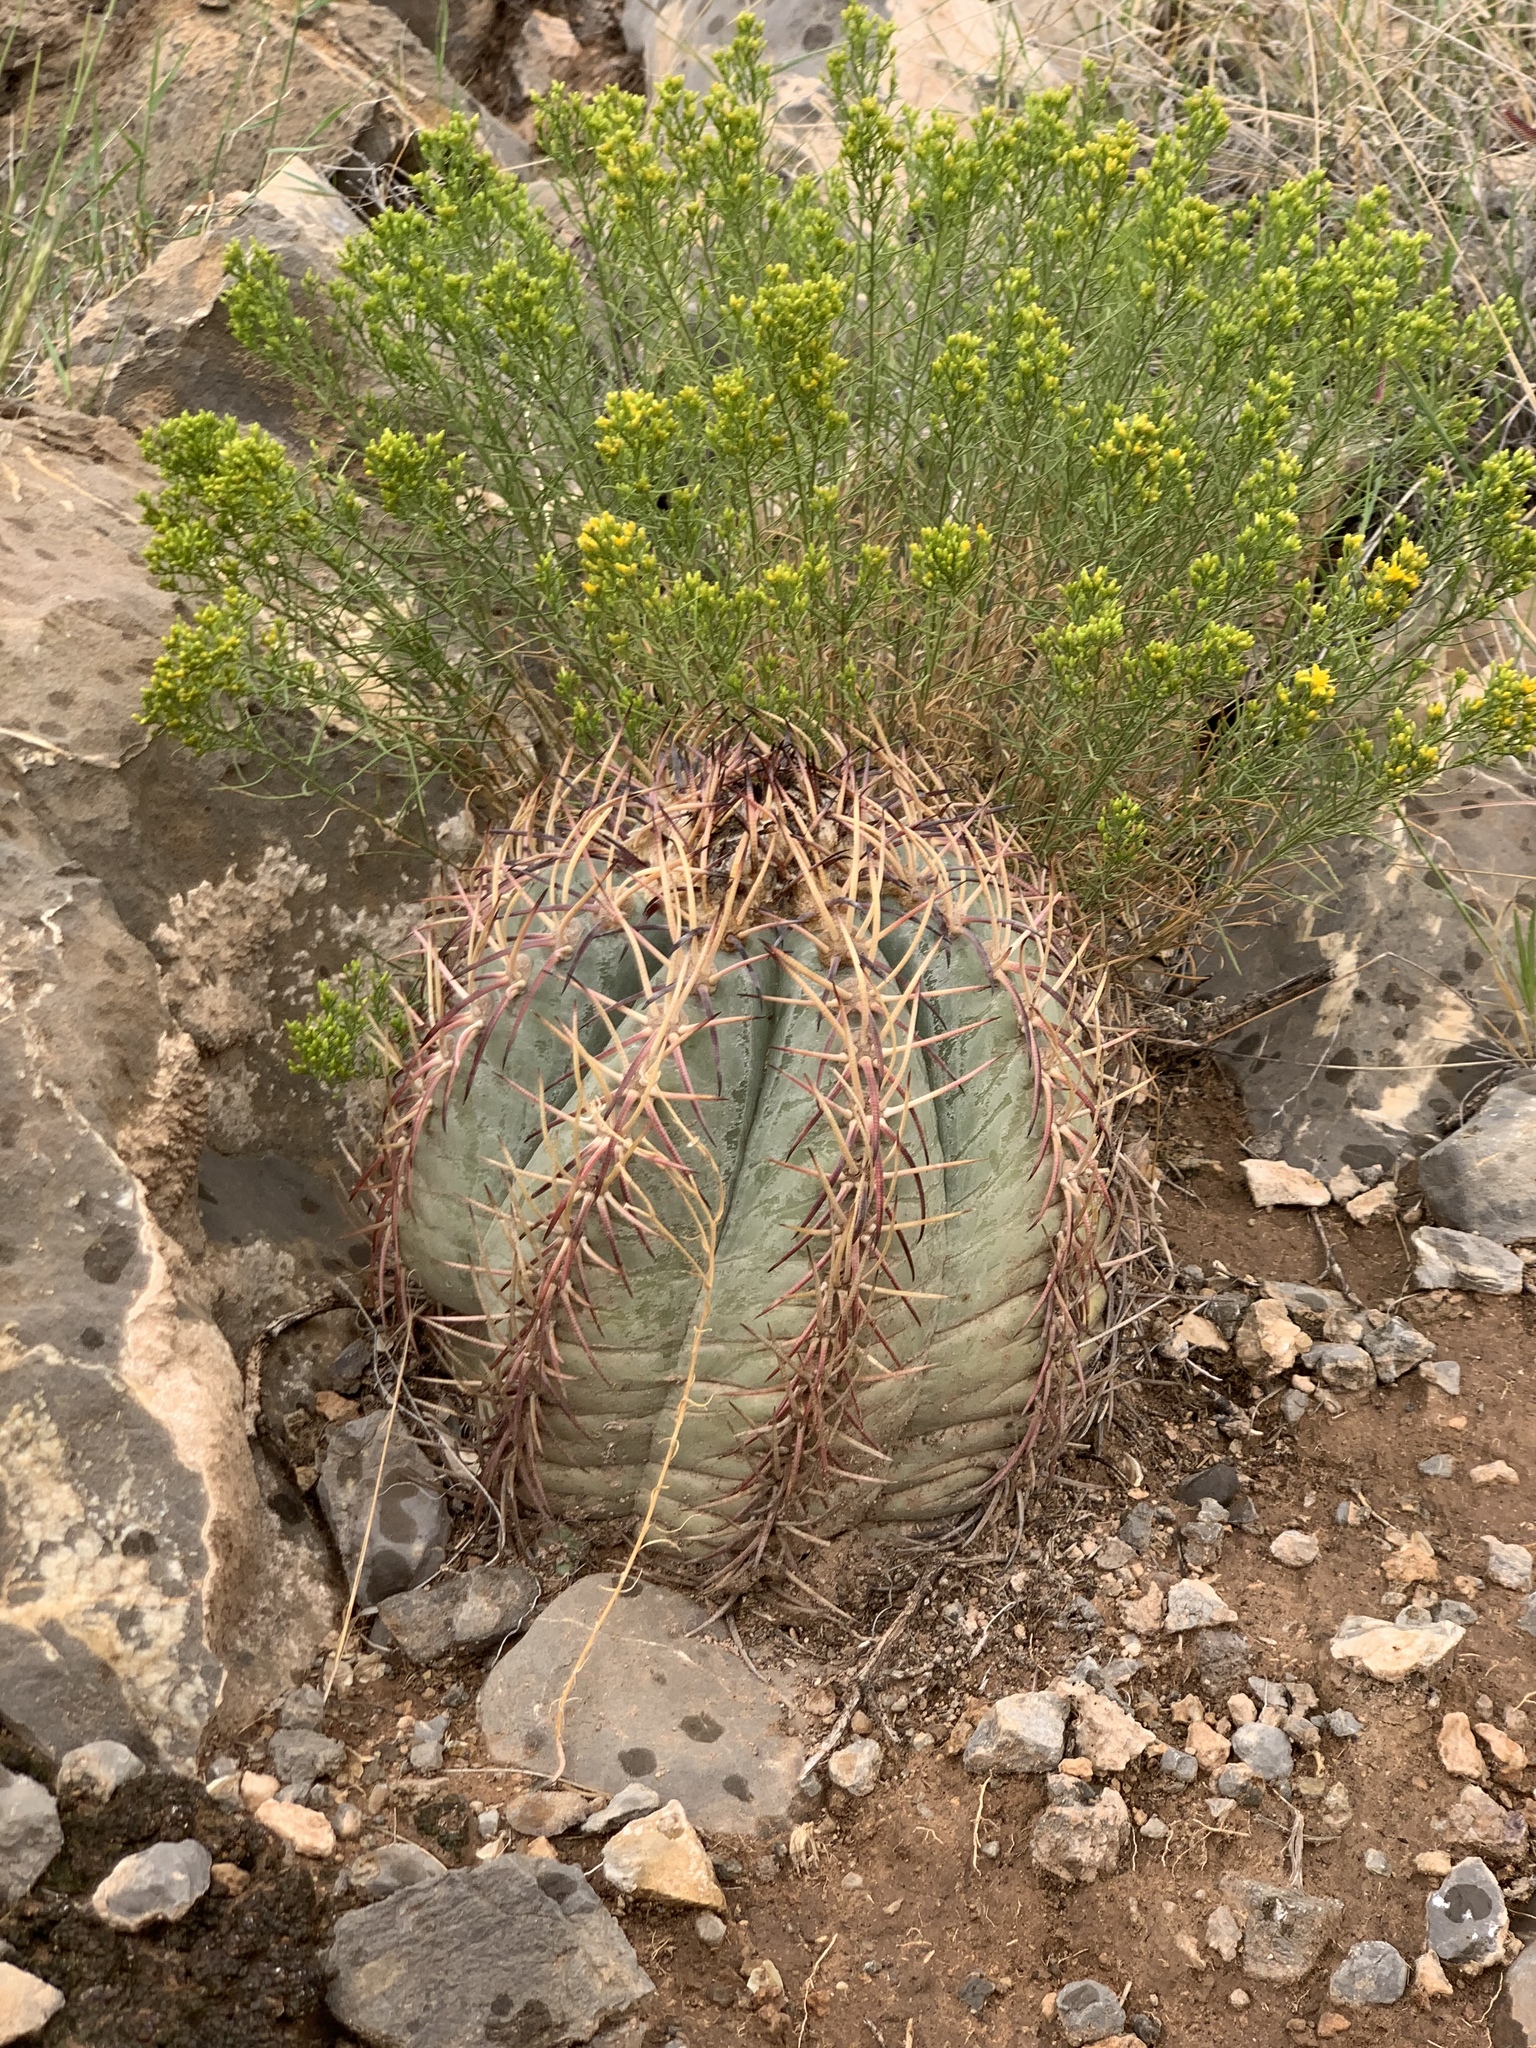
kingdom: Plantae
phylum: Tracheophyta
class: Magnoliopsida
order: Caryophyllales
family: Cactaceae
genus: Echinocactus
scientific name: Echinocactus horizonthalonius
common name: Devilshead
